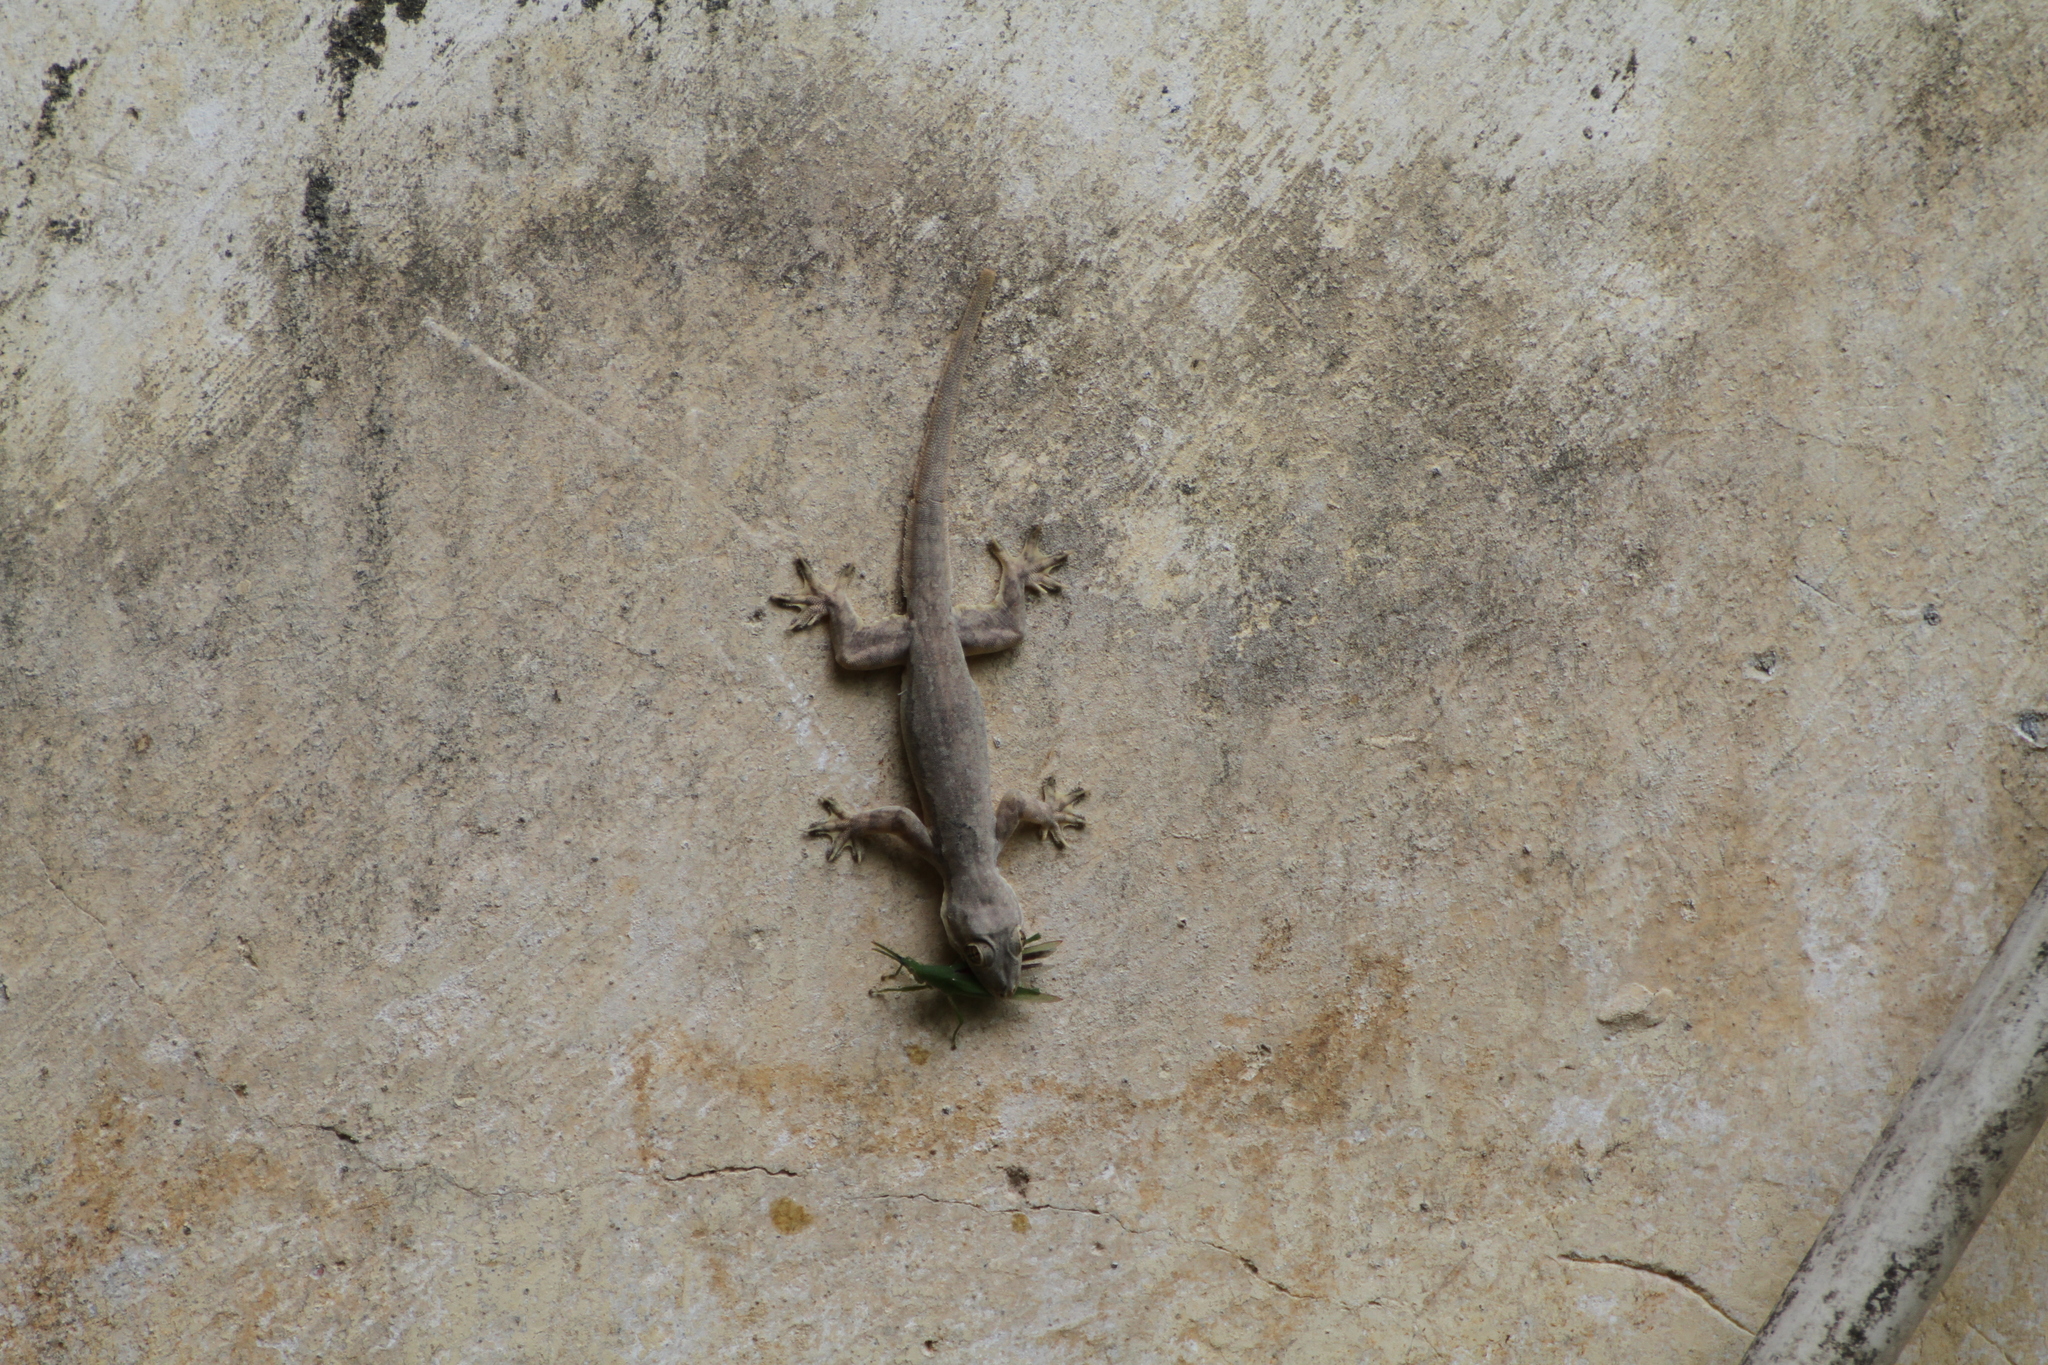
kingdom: Animalia
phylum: Chordata
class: Squamata
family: Gekkonidae
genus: Hemidactylus
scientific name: Hemidactylus platyurus
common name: Flat-tailed house gecko
